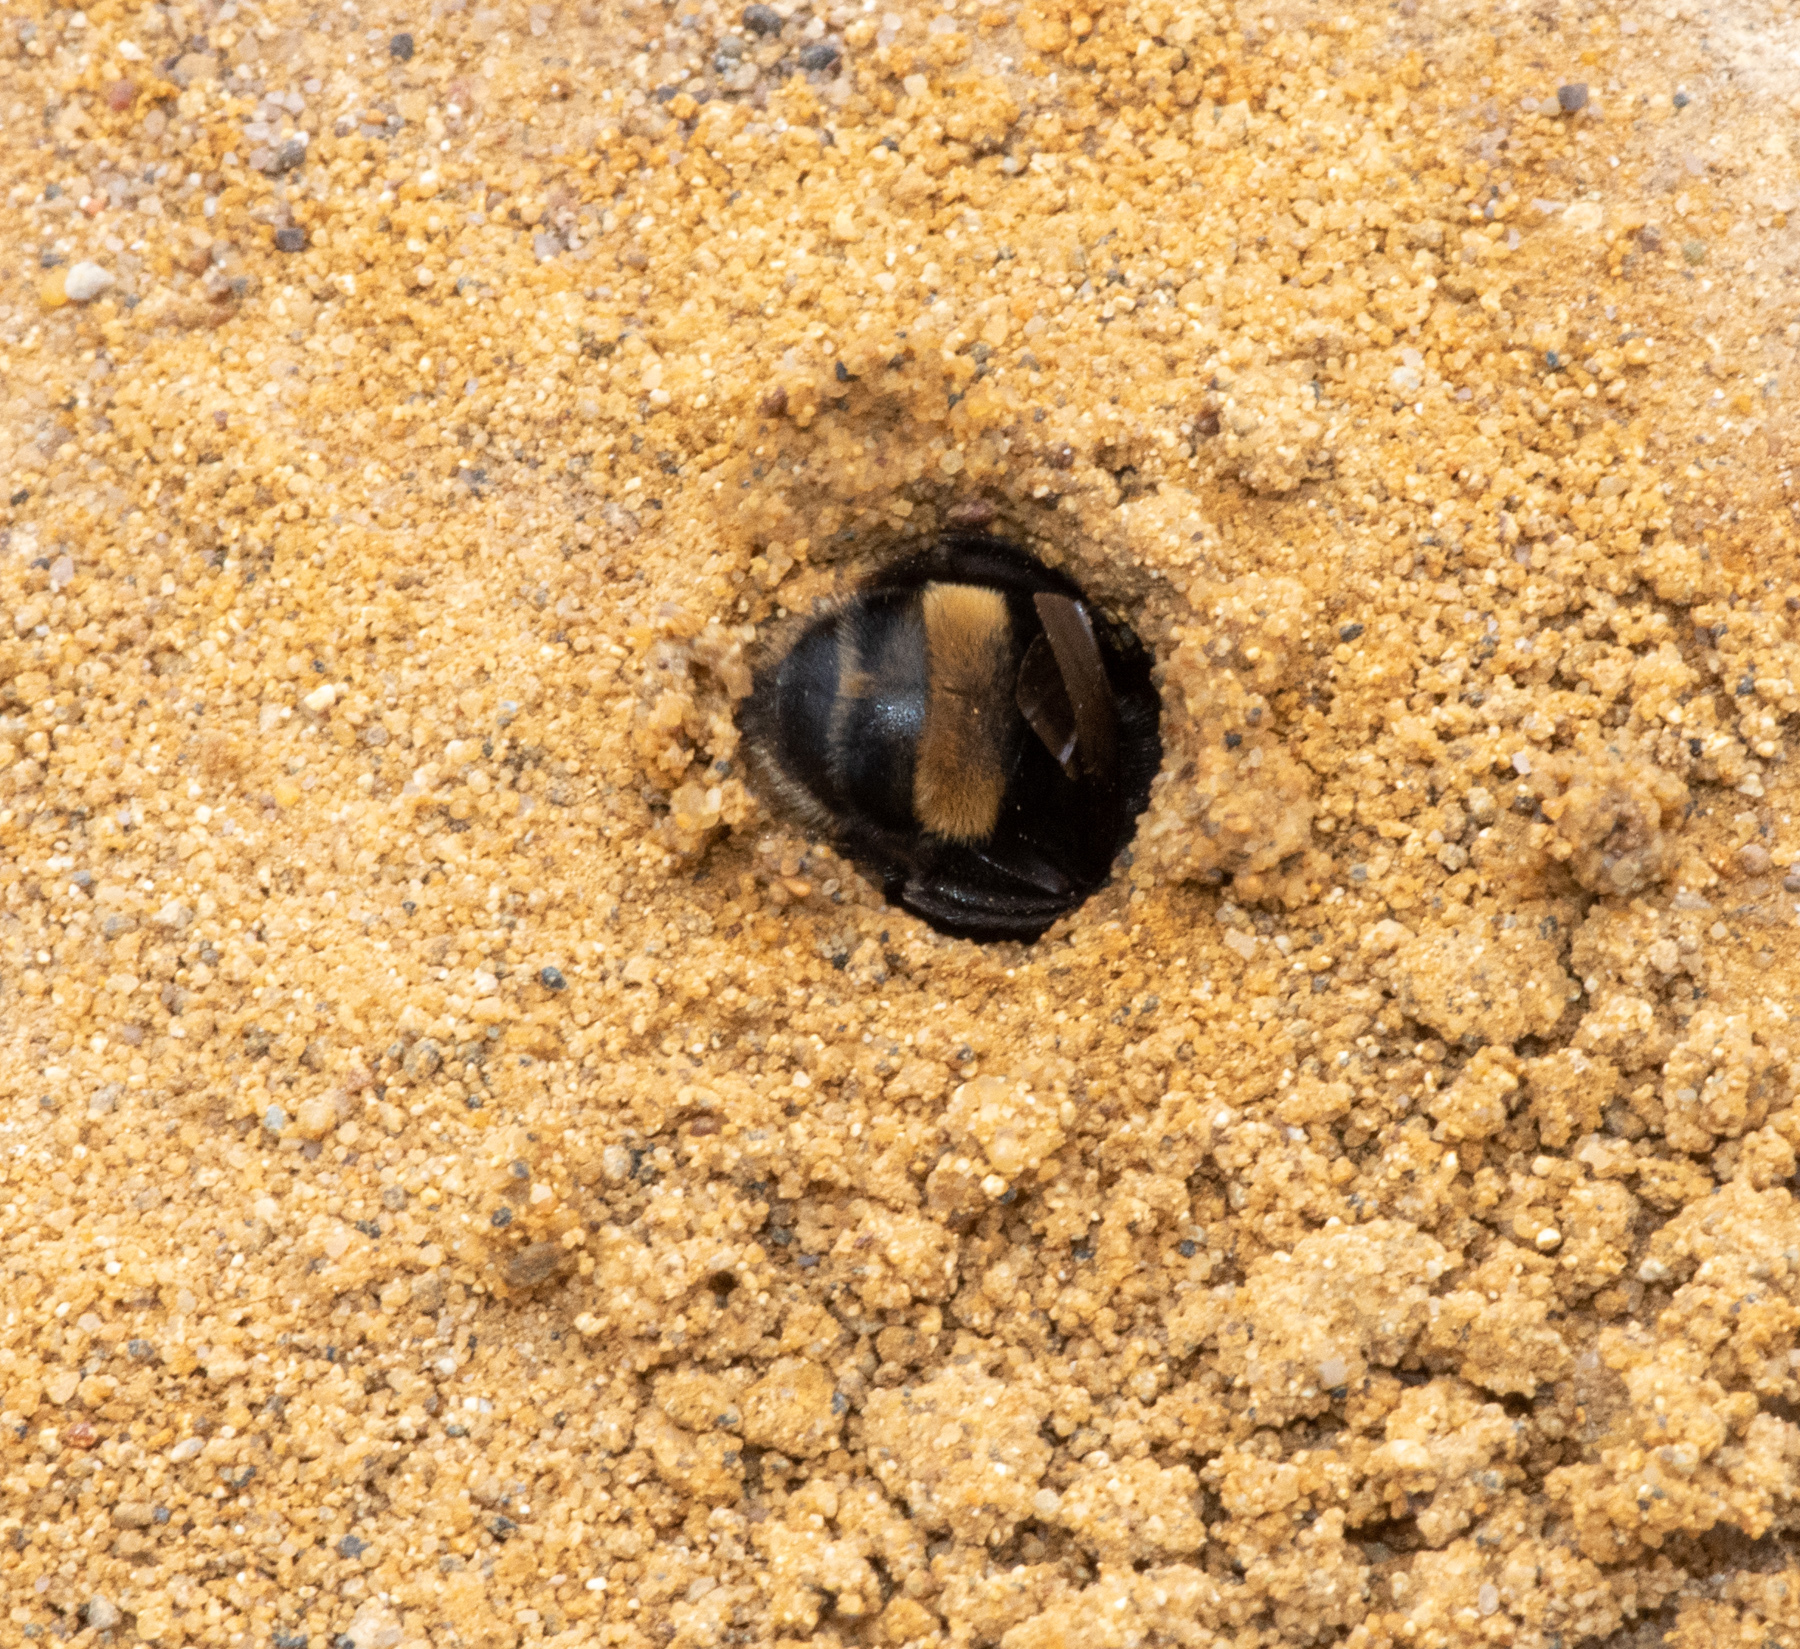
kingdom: Animalia
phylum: Arthropoda
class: Insecta
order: Hymenoptera
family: Apidae
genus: Anthophora
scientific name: Anthophora bomboides
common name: Bumble-bee-mimic digger bee
